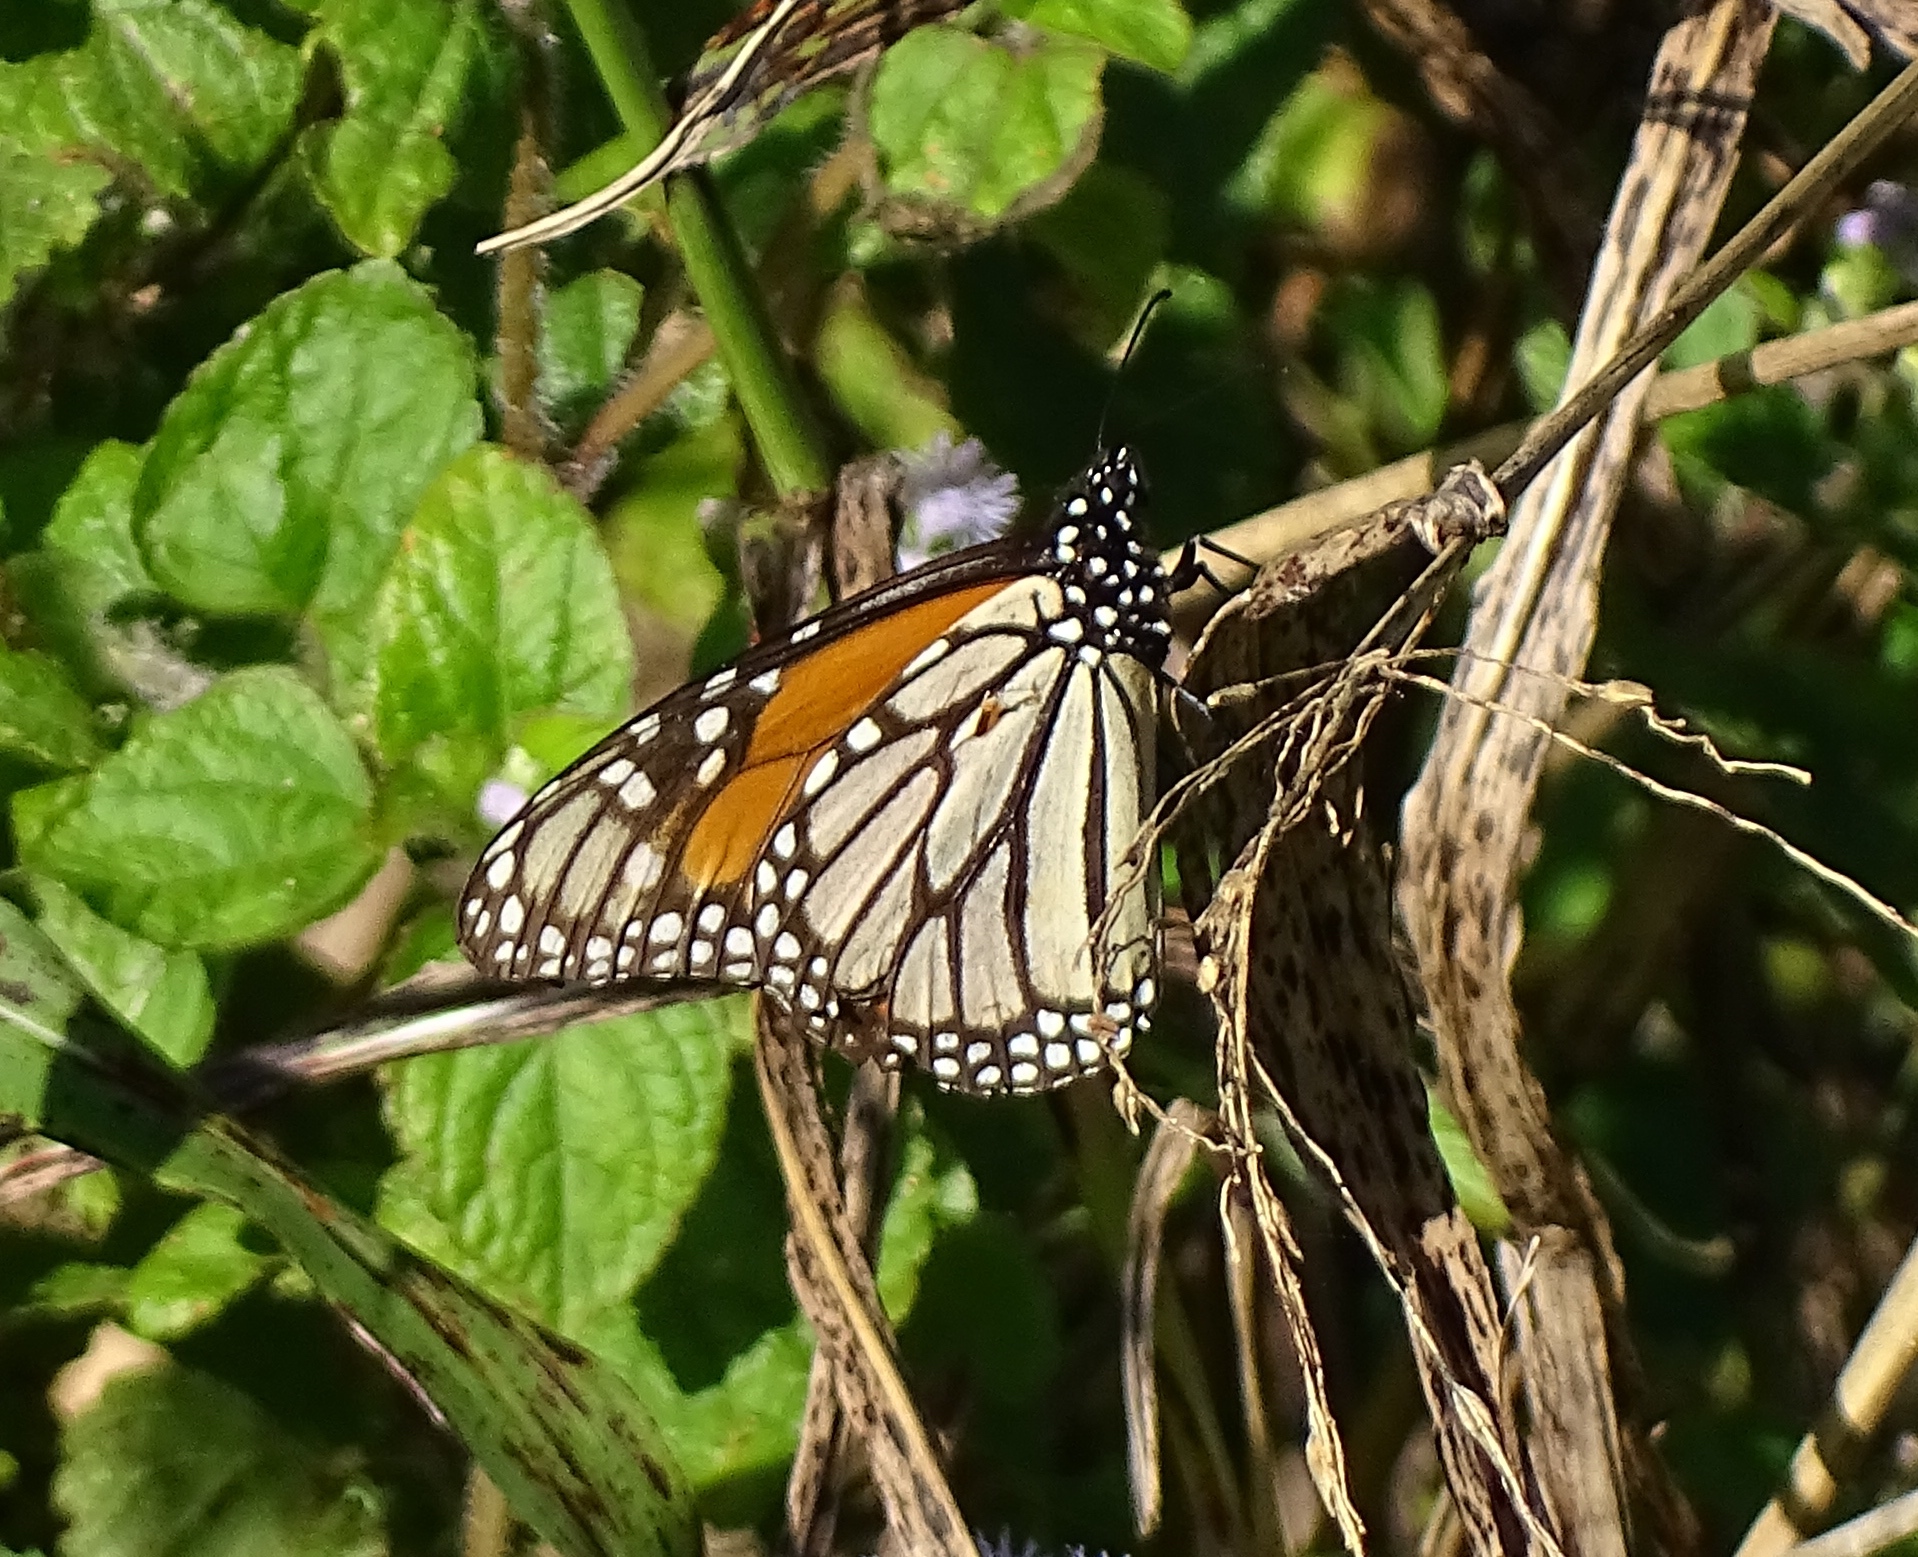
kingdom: Animalia
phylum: Arthropoda
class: Insecta
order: Lepidoptera
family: Nymphalidae
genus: Danaus
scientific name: Danaus plexippus
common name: Monarch
